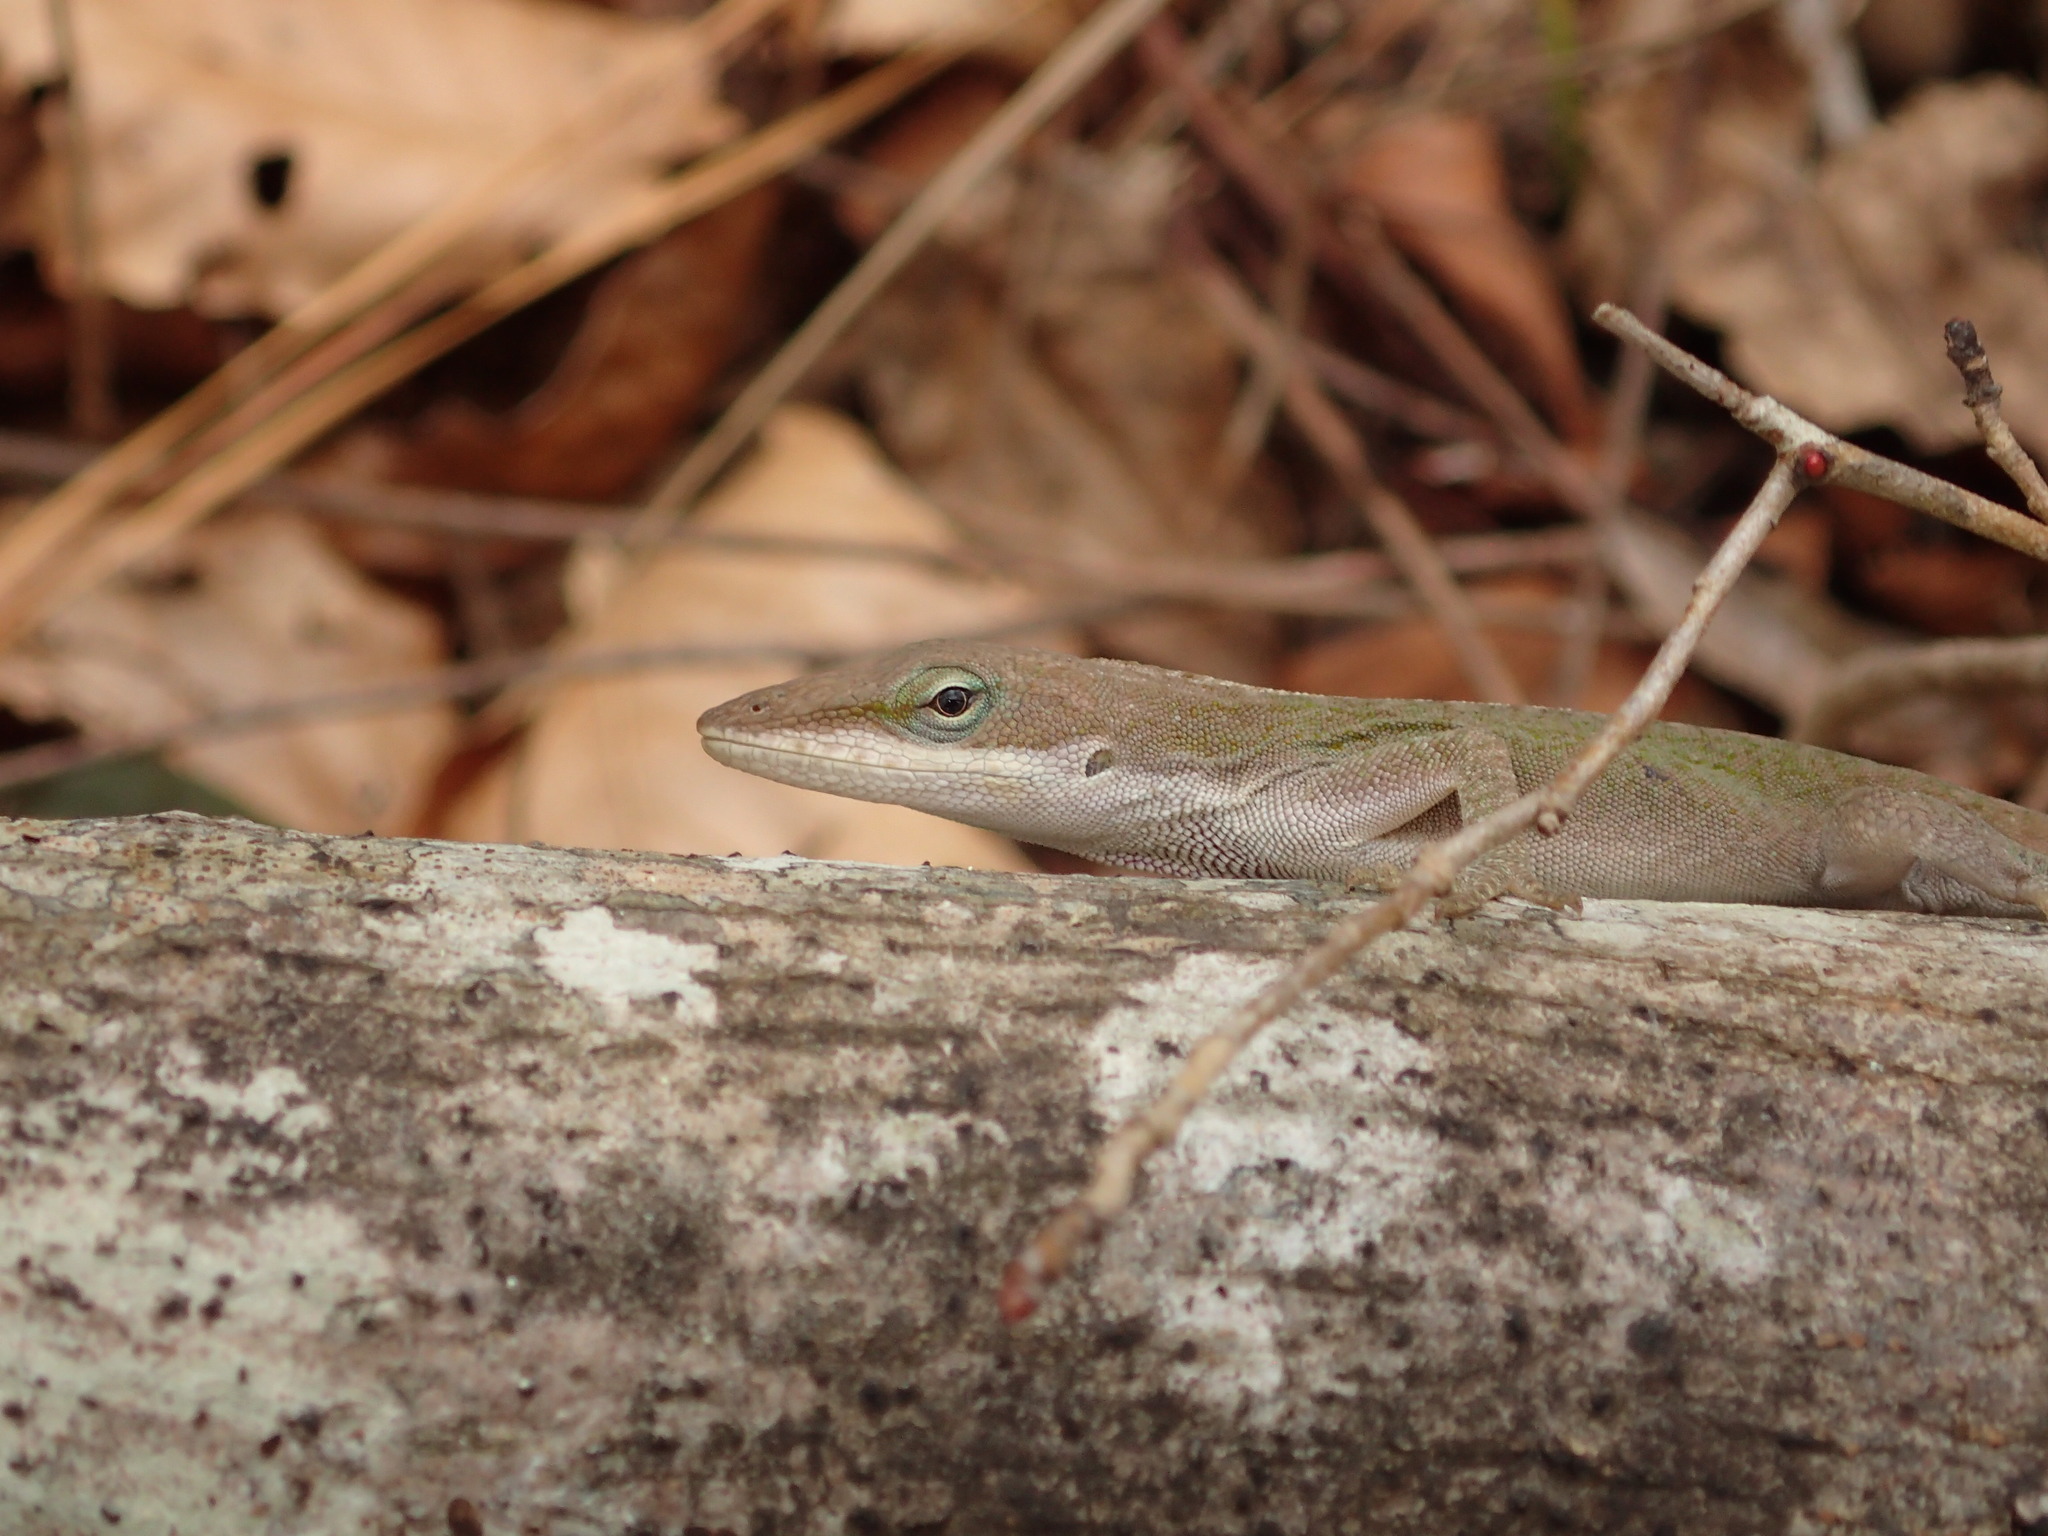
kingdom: Animalia
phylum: Chordata
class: Squamata
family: Dactyloidae
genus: Anolis
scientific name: Anolis carolinensis
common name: Green anole
